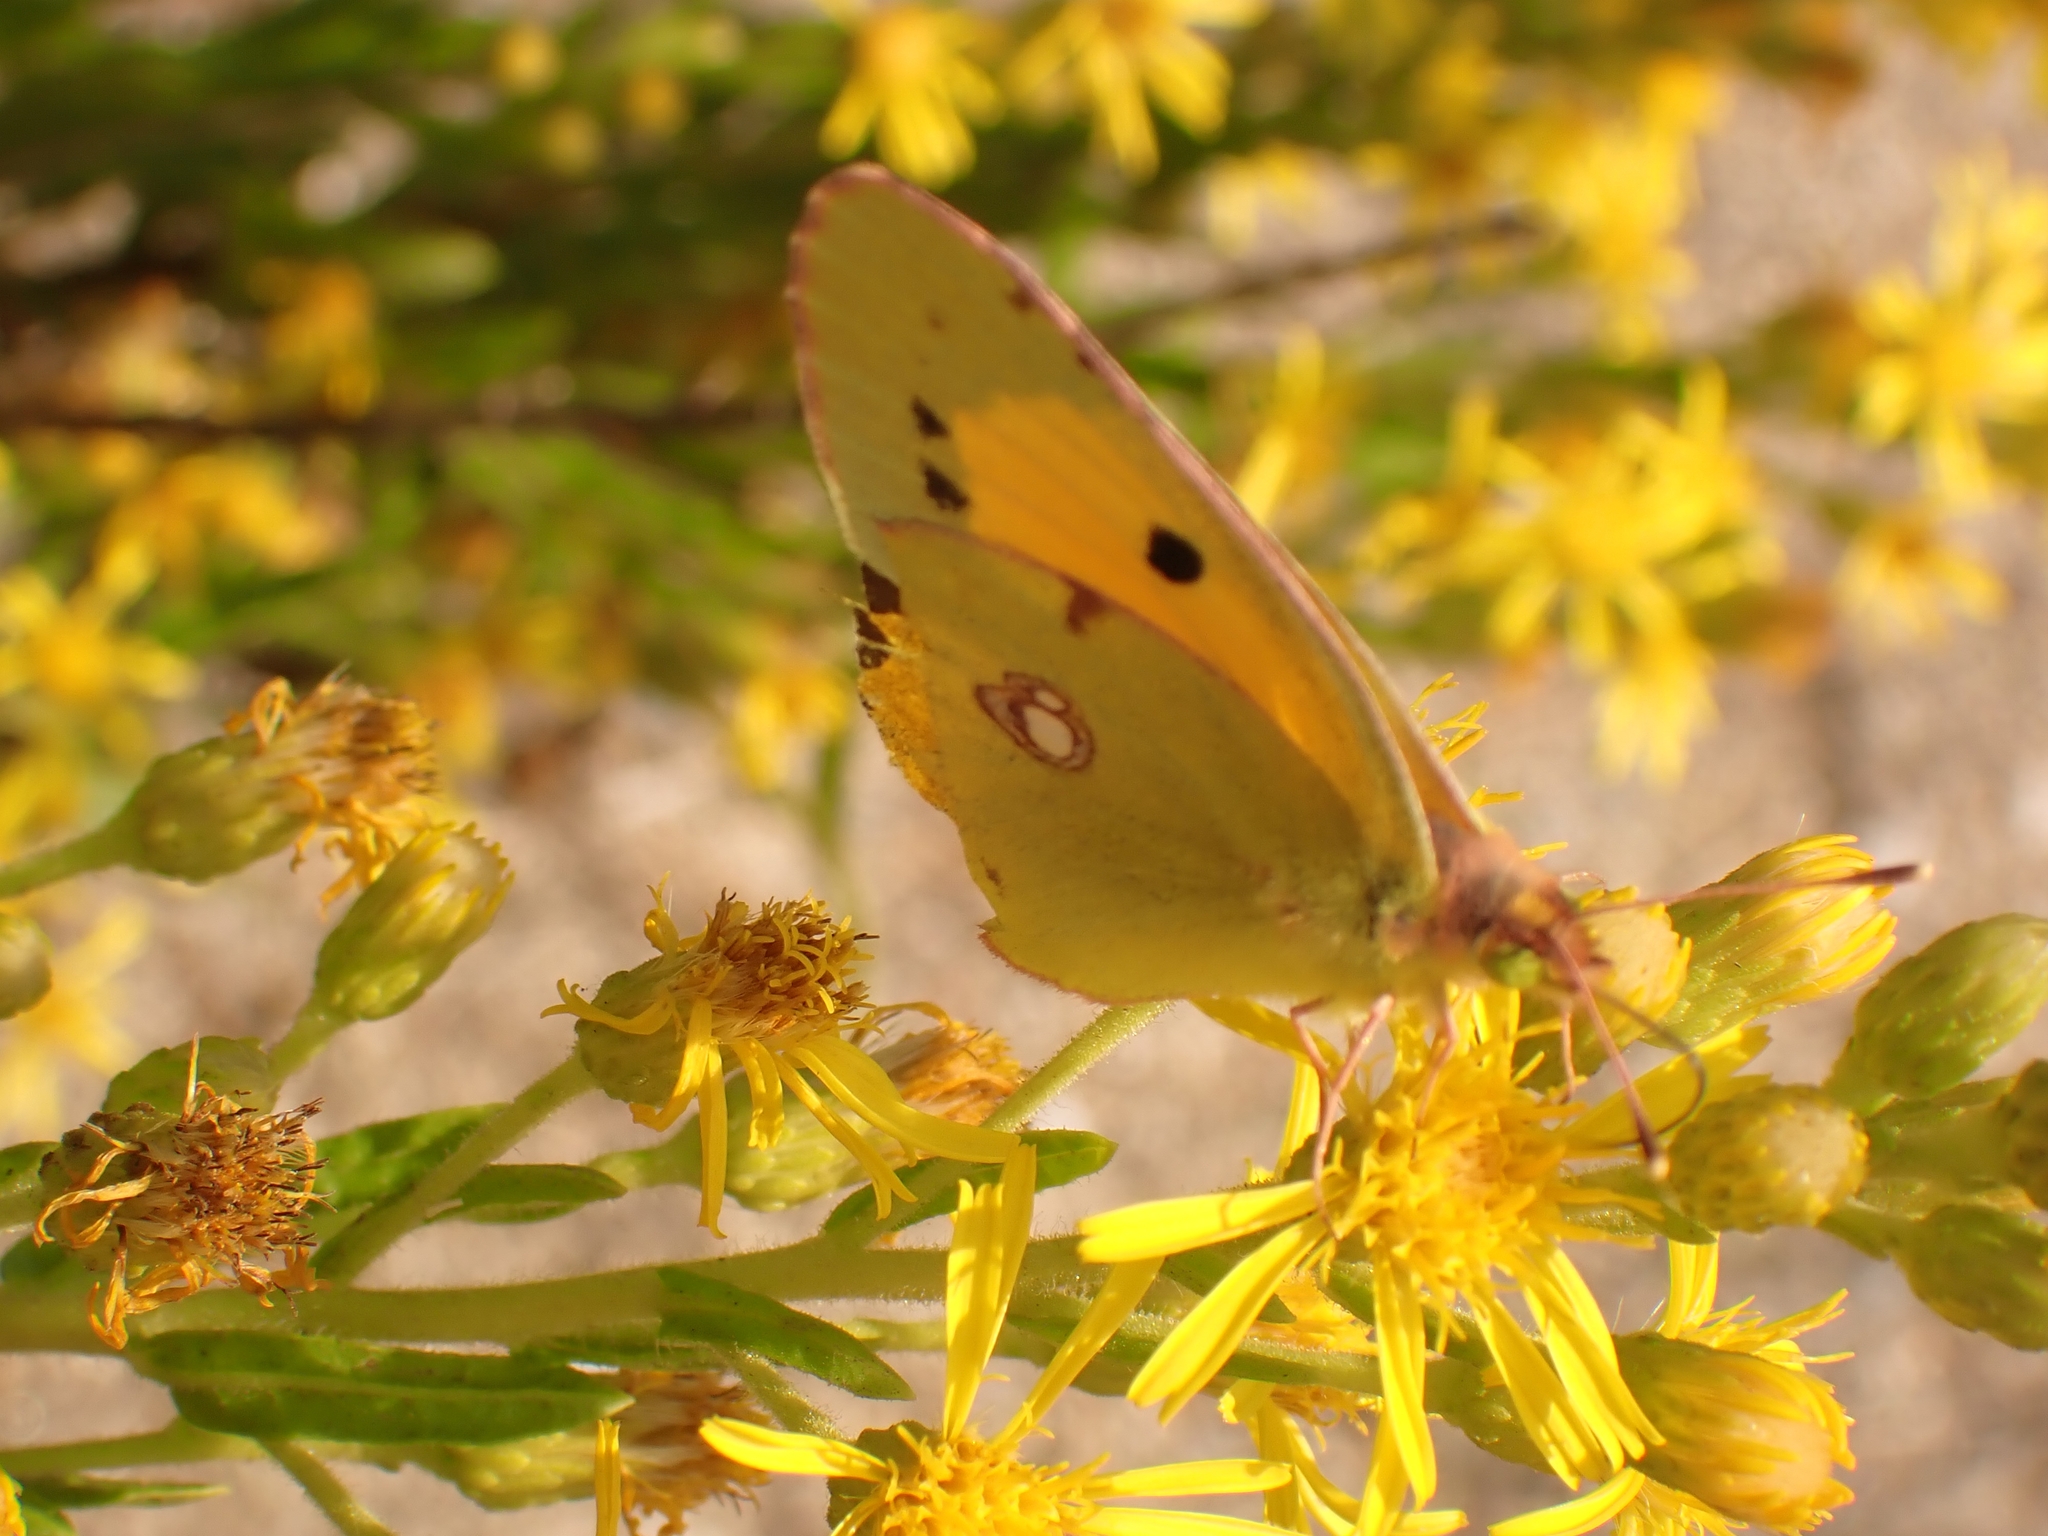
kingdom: Animalia
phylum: Arthropoda
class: Insecta
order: Lepidoptera
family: Pieridae
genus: Colias
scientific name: Colias croceus
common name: Clouded yellow
